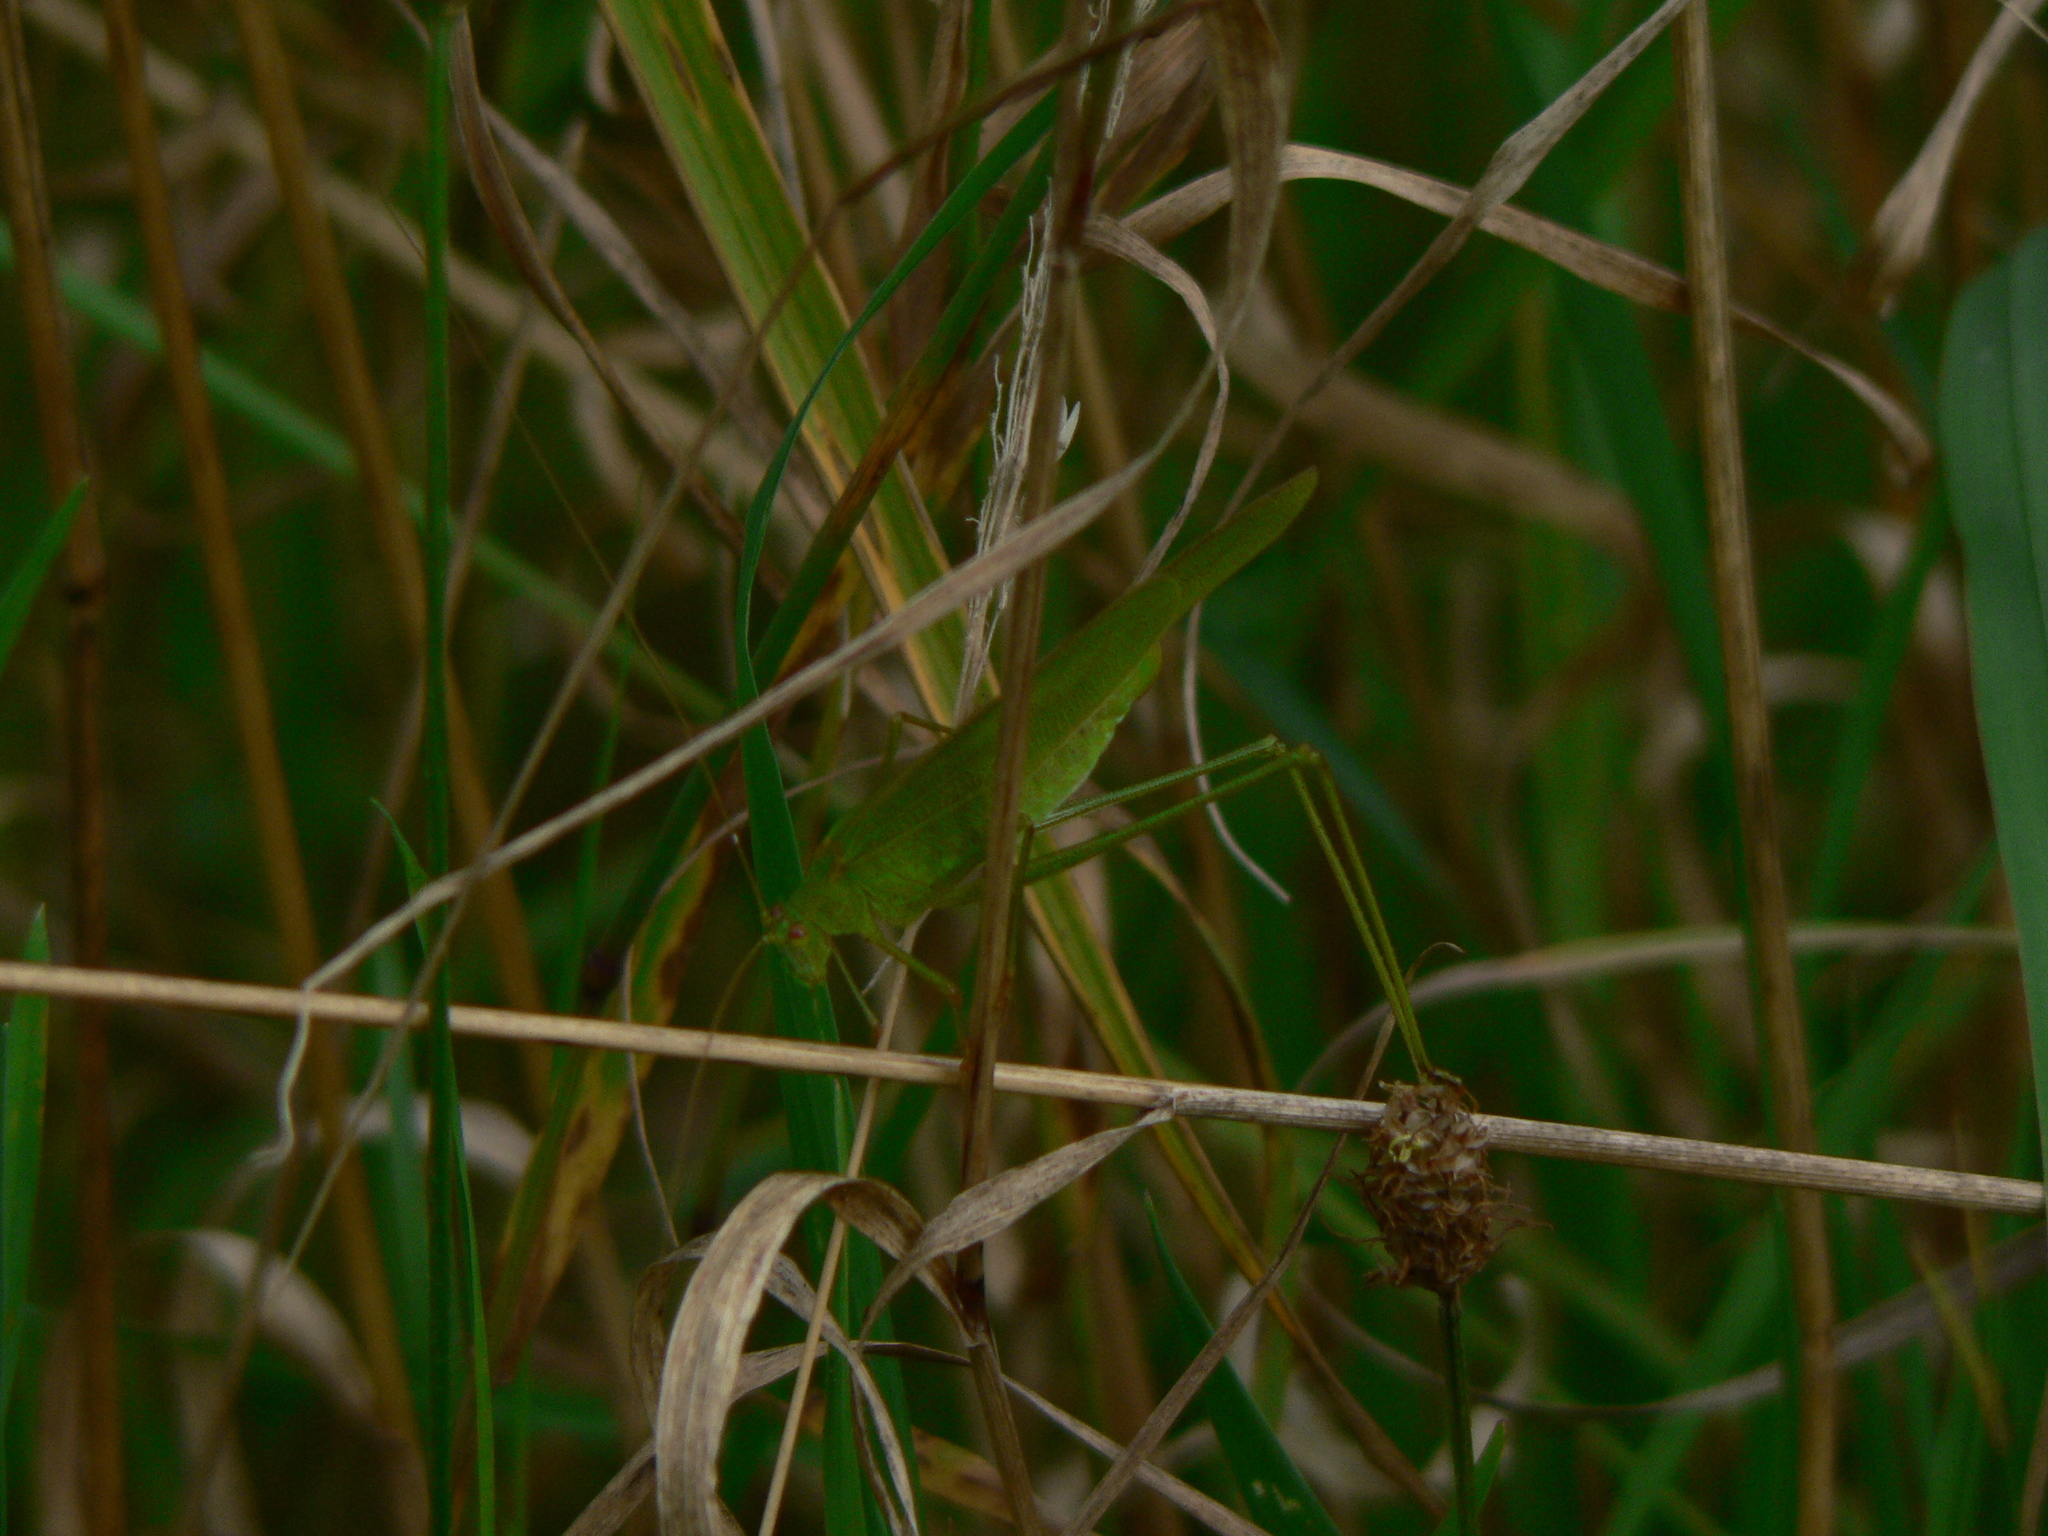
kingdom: Animalia
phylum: Arthropoda
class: Insecta
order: Orthoptera
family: Tettigoniidae
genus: Phaneroptera
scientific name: Phaneroptera falcata
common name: Sickle-bearing bush-cricket
